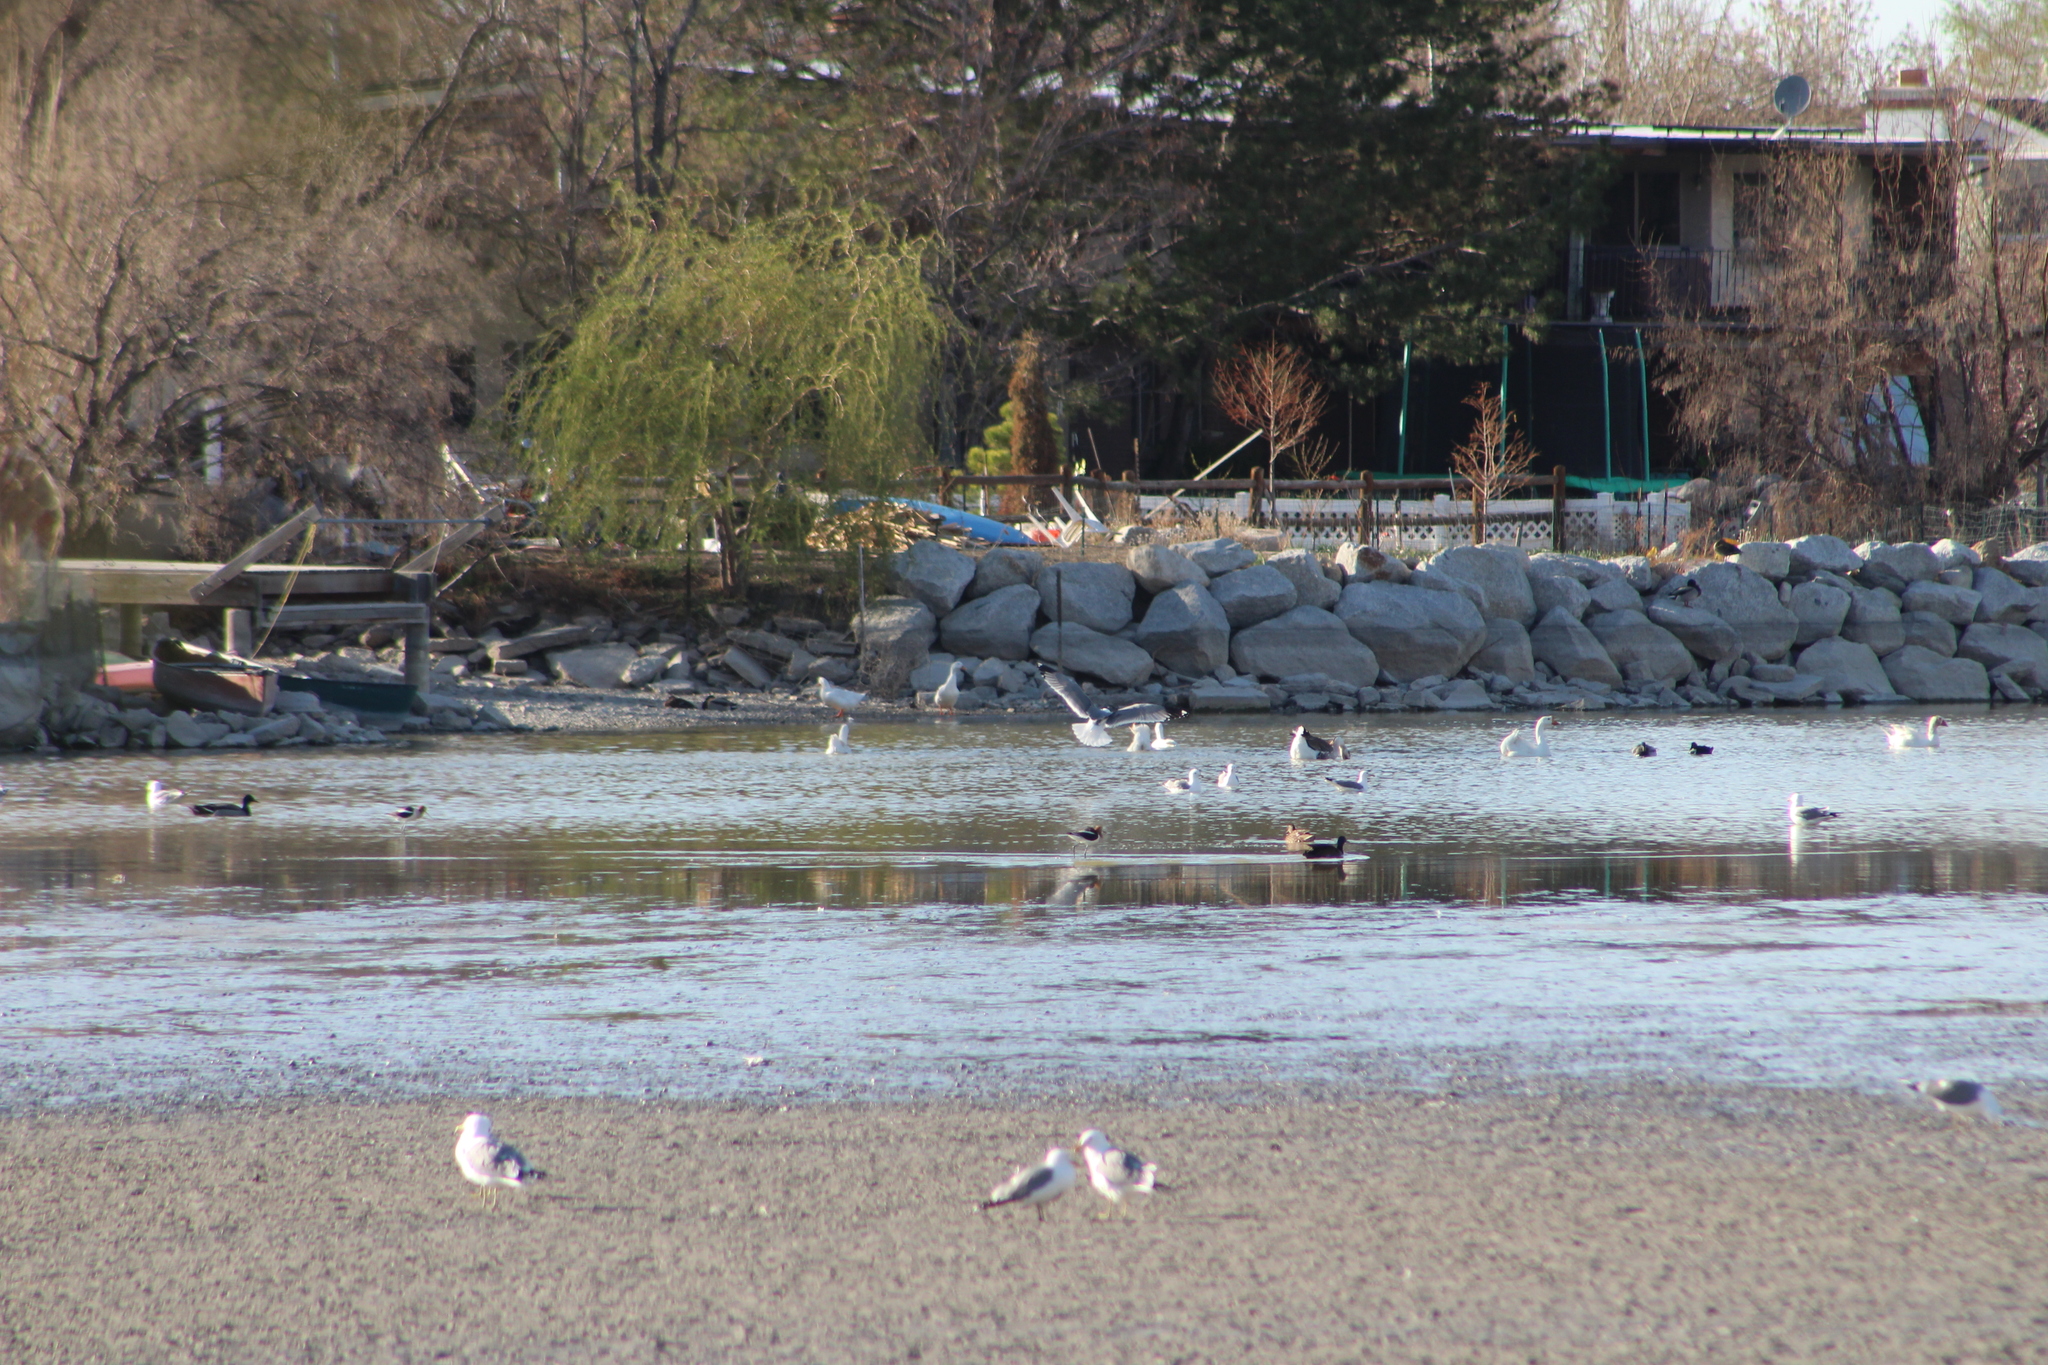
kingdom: Animalia
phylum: Chordata
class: Aves
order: Charadriiformes
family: Recurvirostridae
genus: Recurvirostra
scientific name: Recurvirostra americana
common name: American avocet
